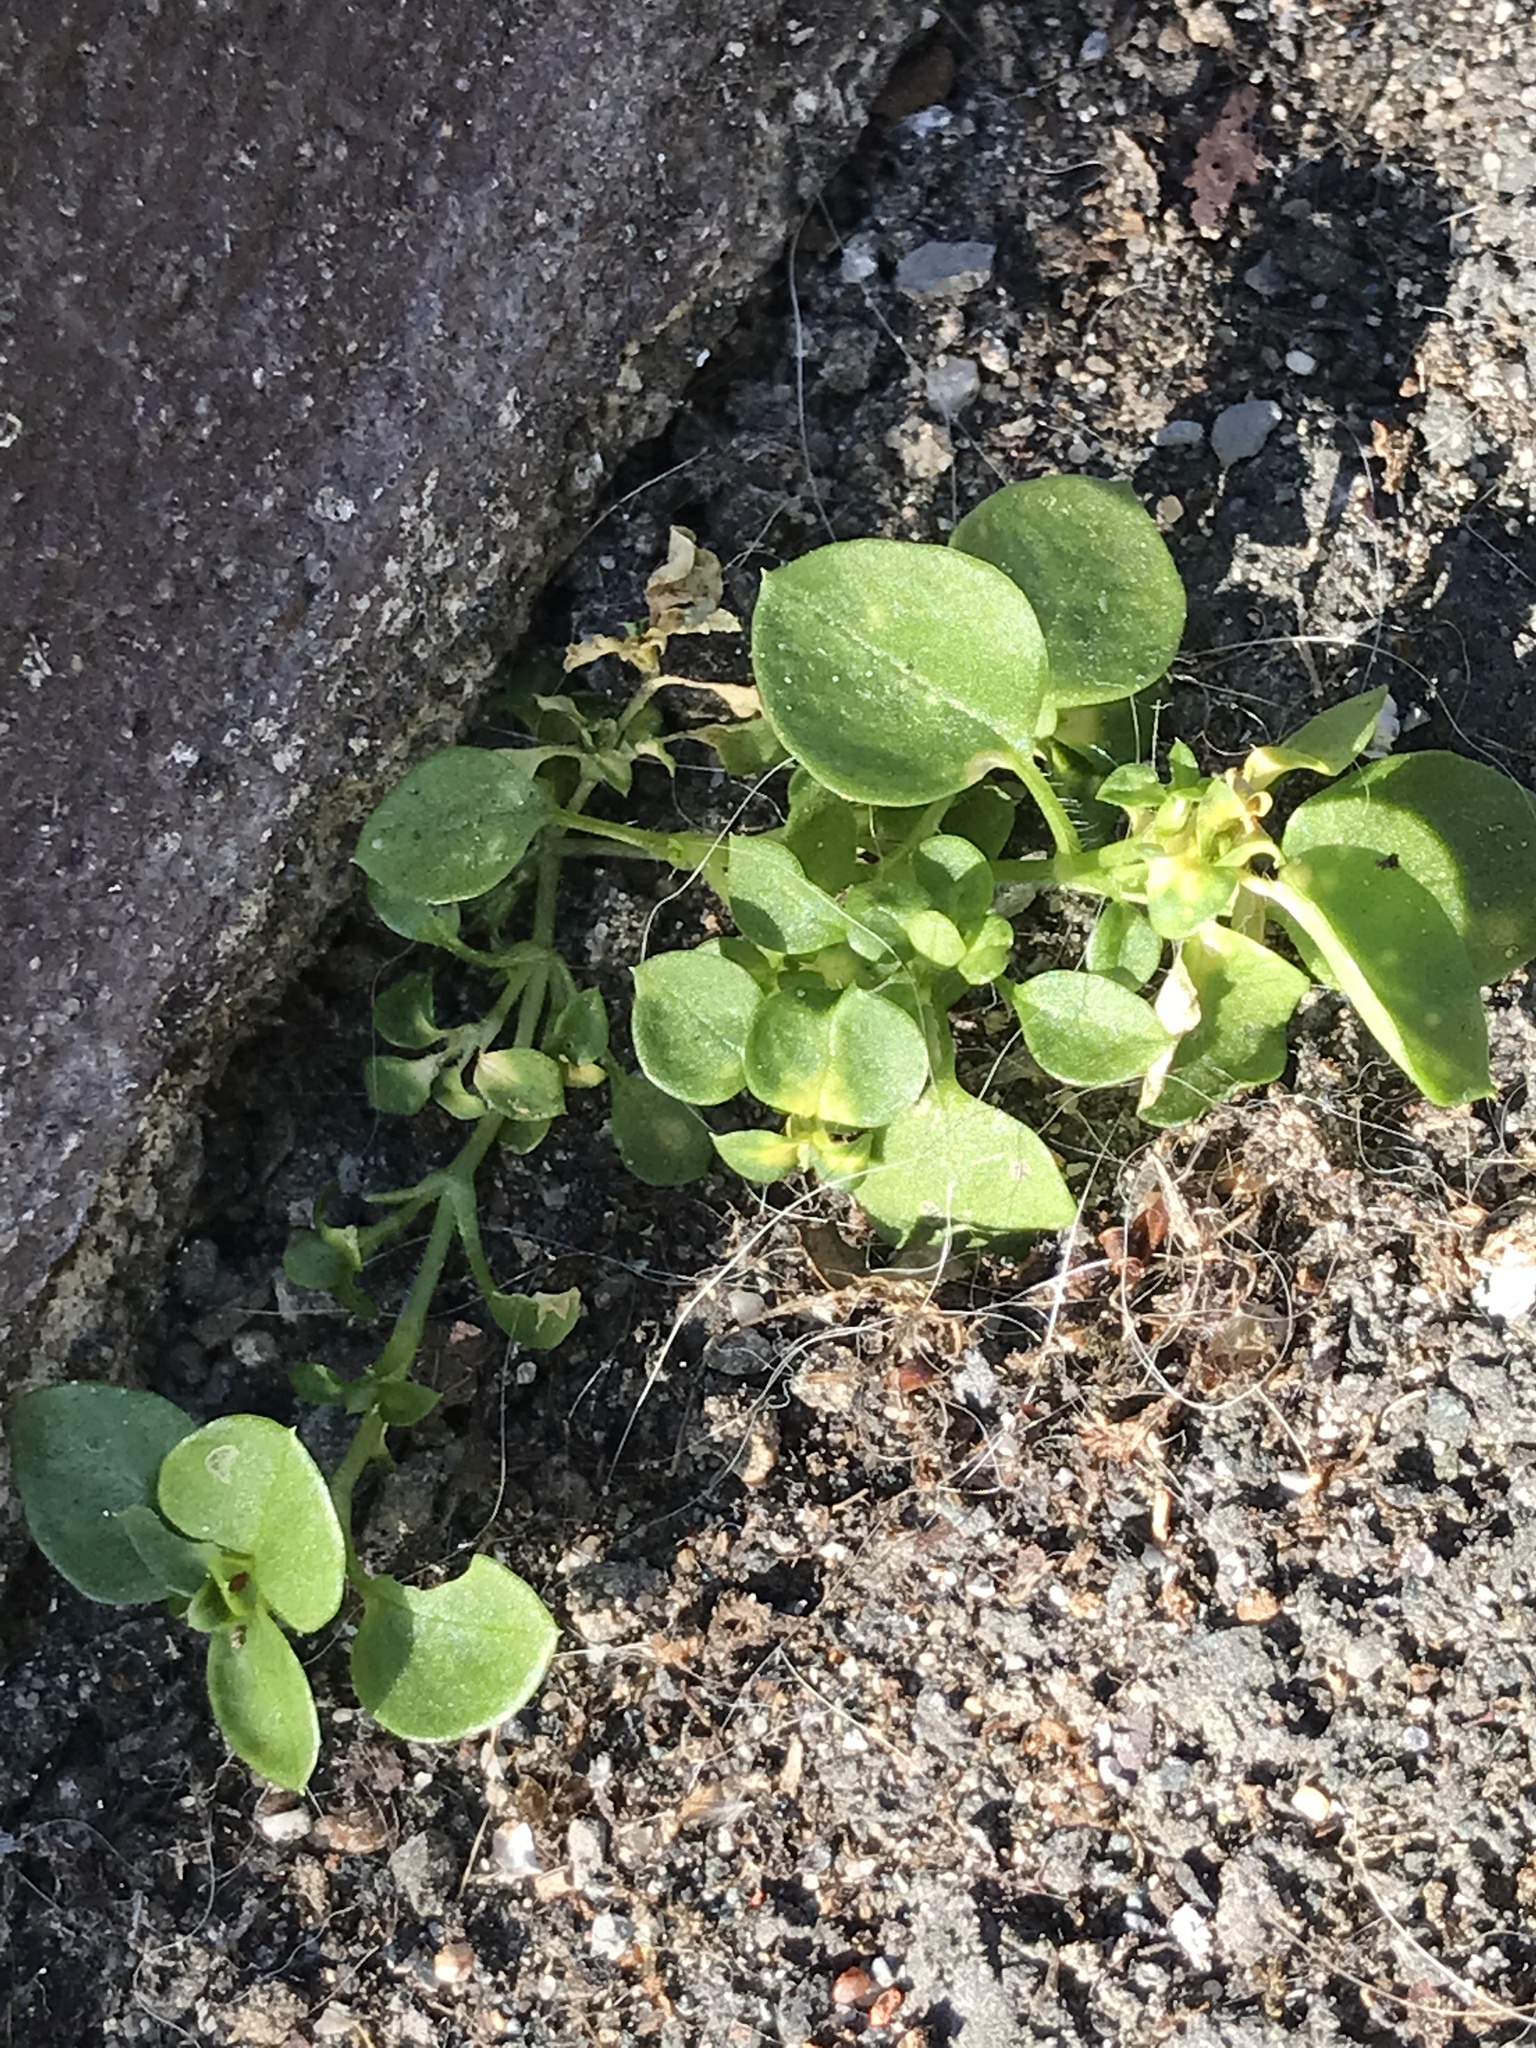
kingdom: Plantae
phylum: Tracheophyta
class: Magnoliopsida
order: Caryophyllales
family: Caryophyllaceae
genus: Stellaria
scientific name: Stellaria media
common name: Common chickweed
